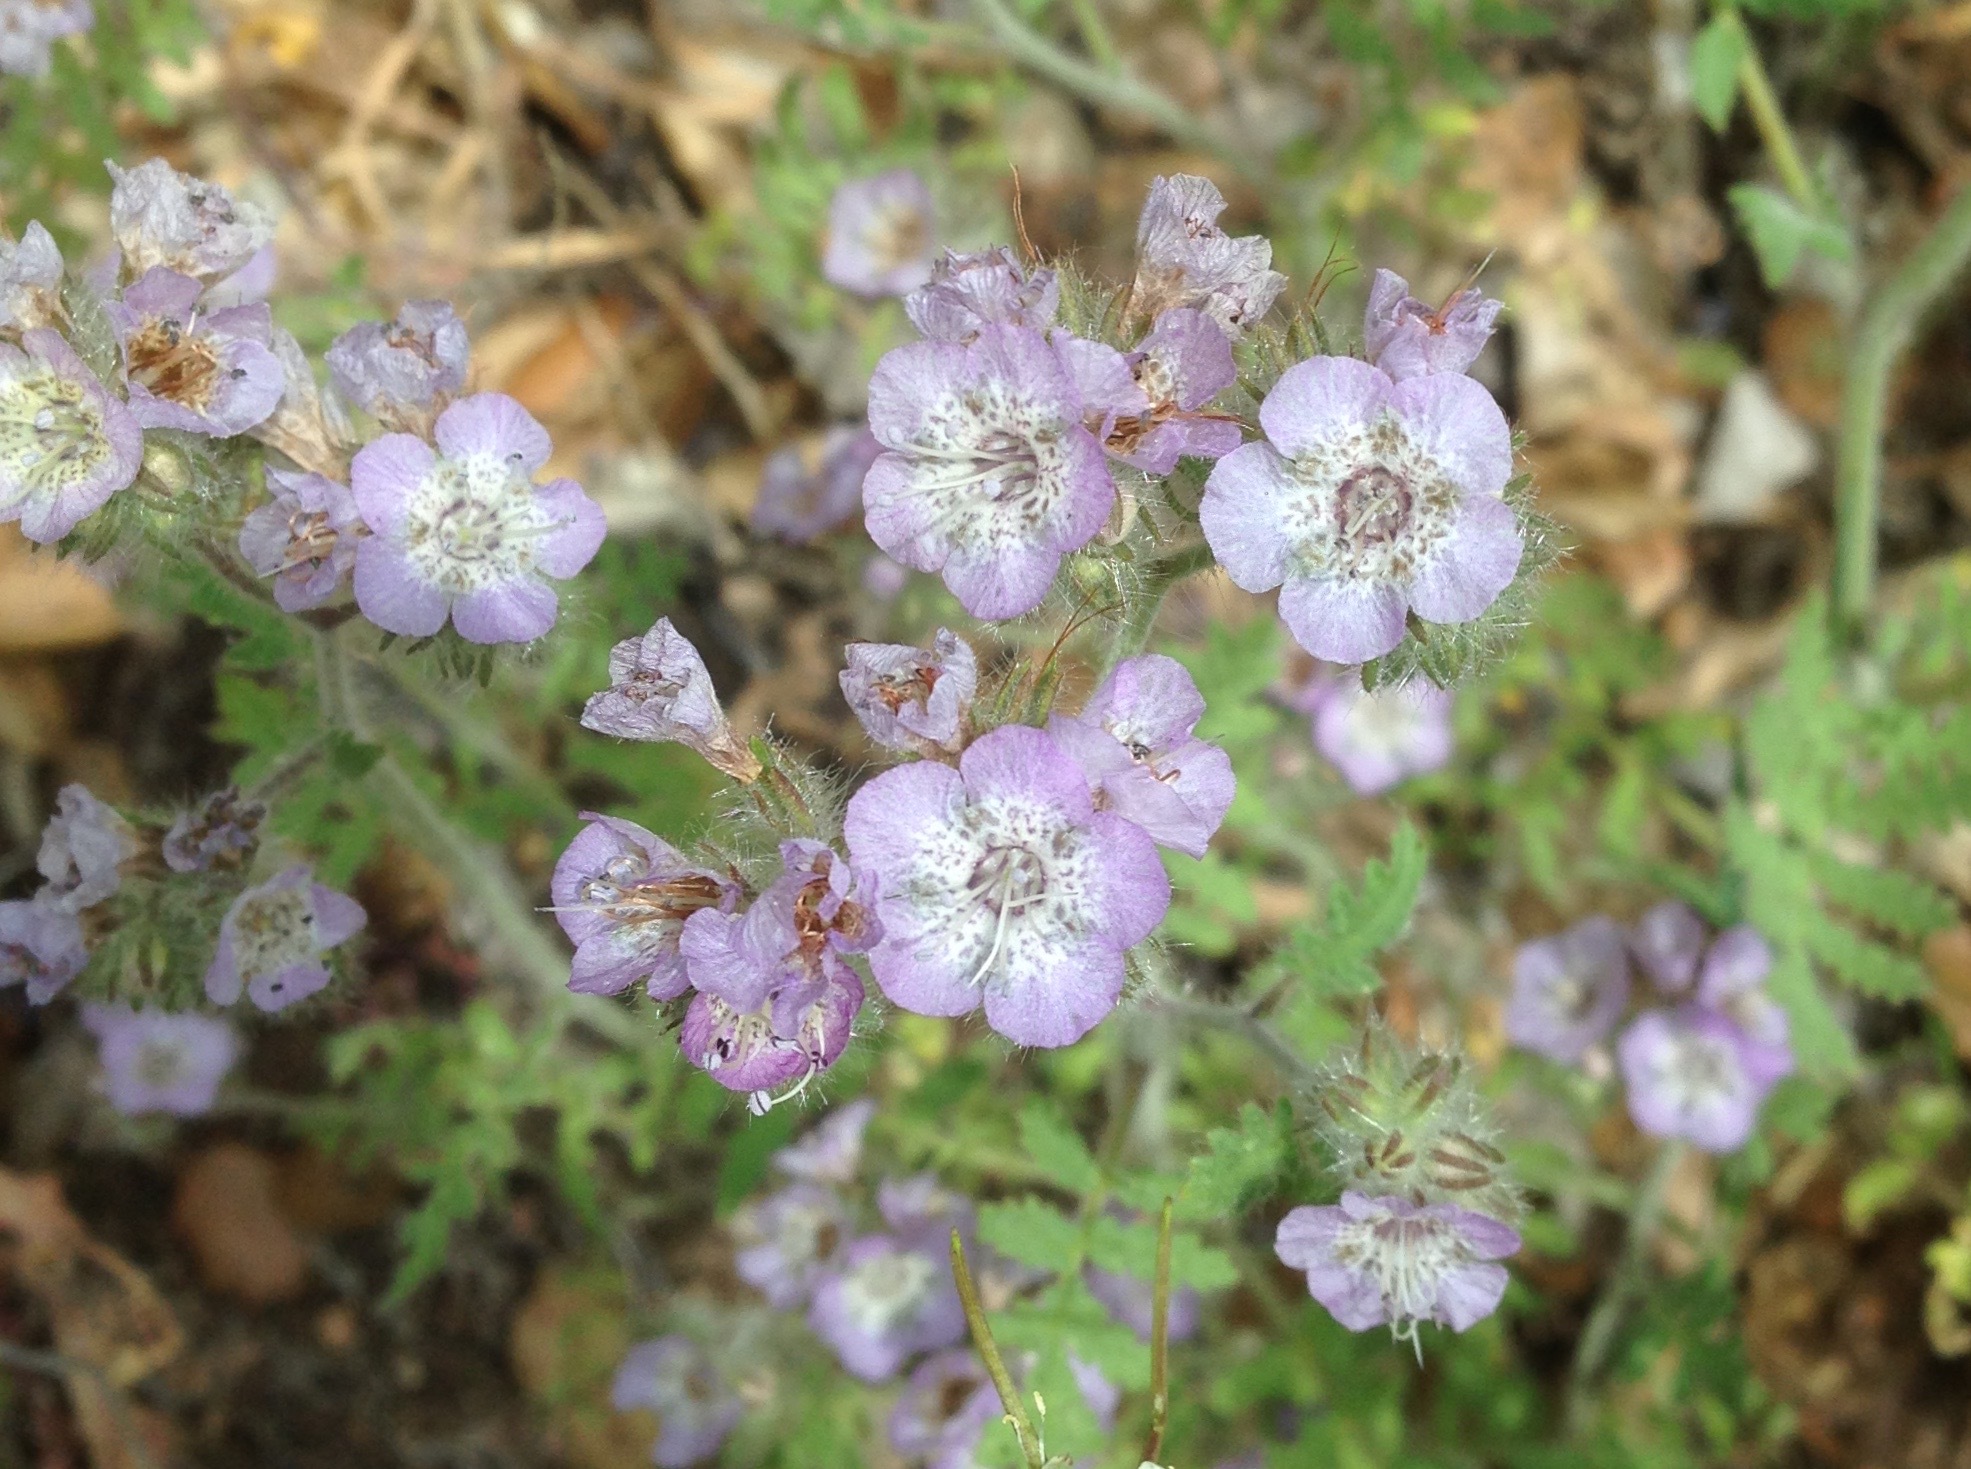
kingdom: Plantae
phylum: Tracheophyta
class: Magnoliopsida
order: Boraginales
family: Hydrophyllaceae
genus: Phacelia
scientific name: Phacelia cicutaria
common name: Caterpillar phacelia
